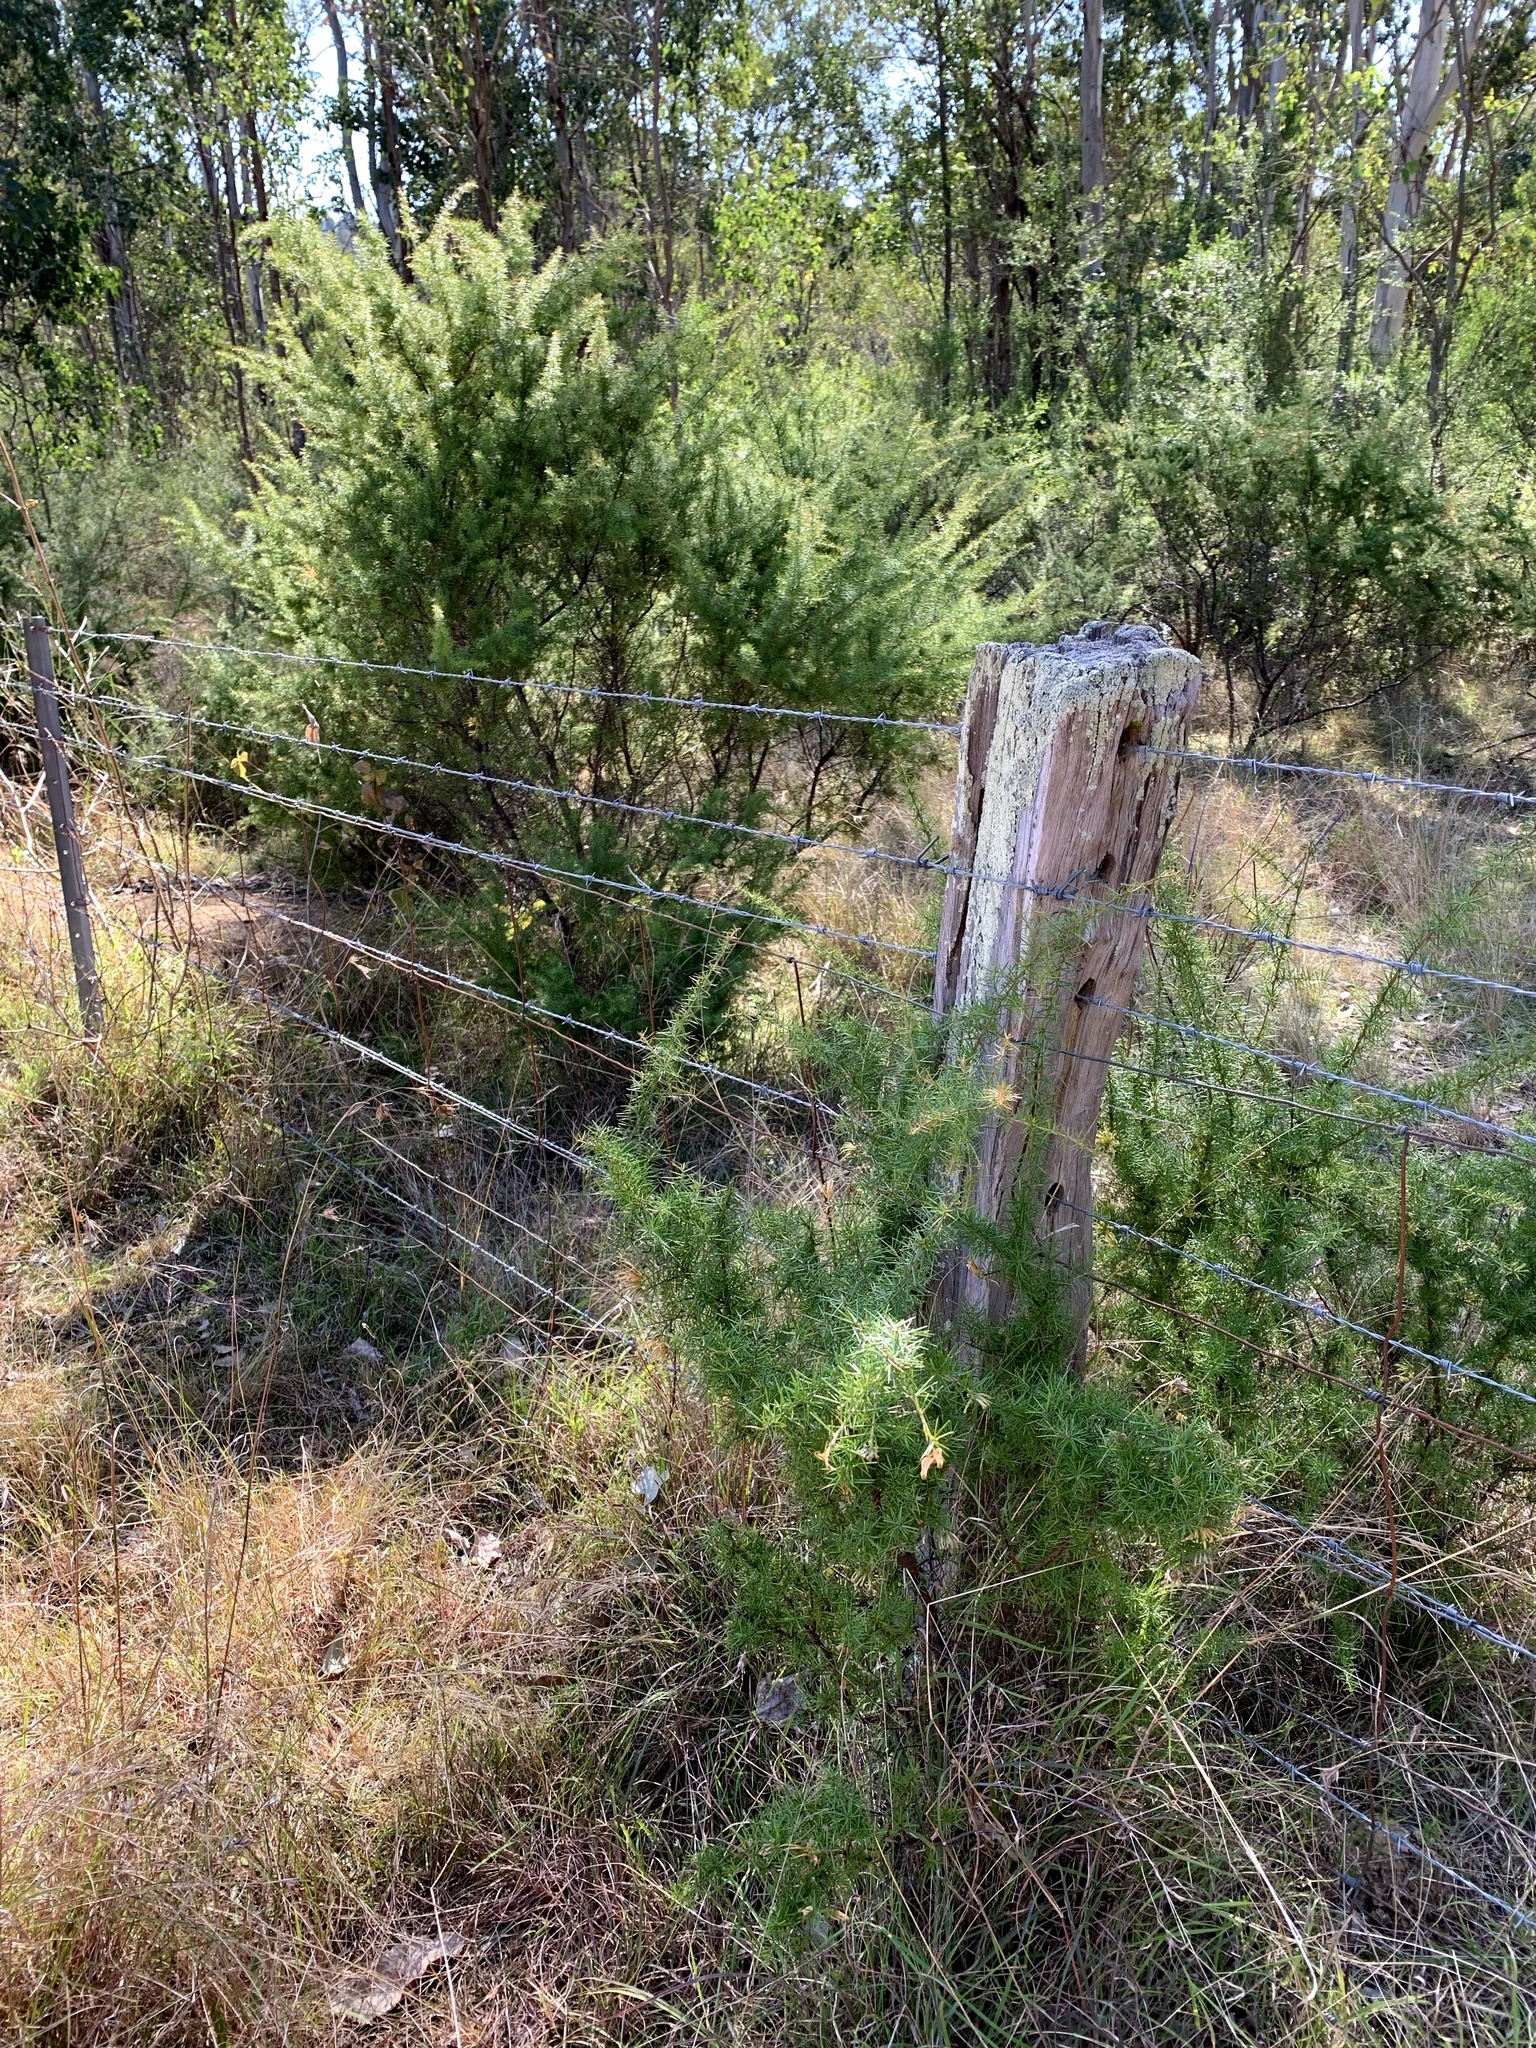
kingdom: Plantae
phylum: Tracheophyta
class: Magnoliopsida
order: Proteales
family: Proteaceae
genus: Grevillea
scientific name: Grevillea juniperina
